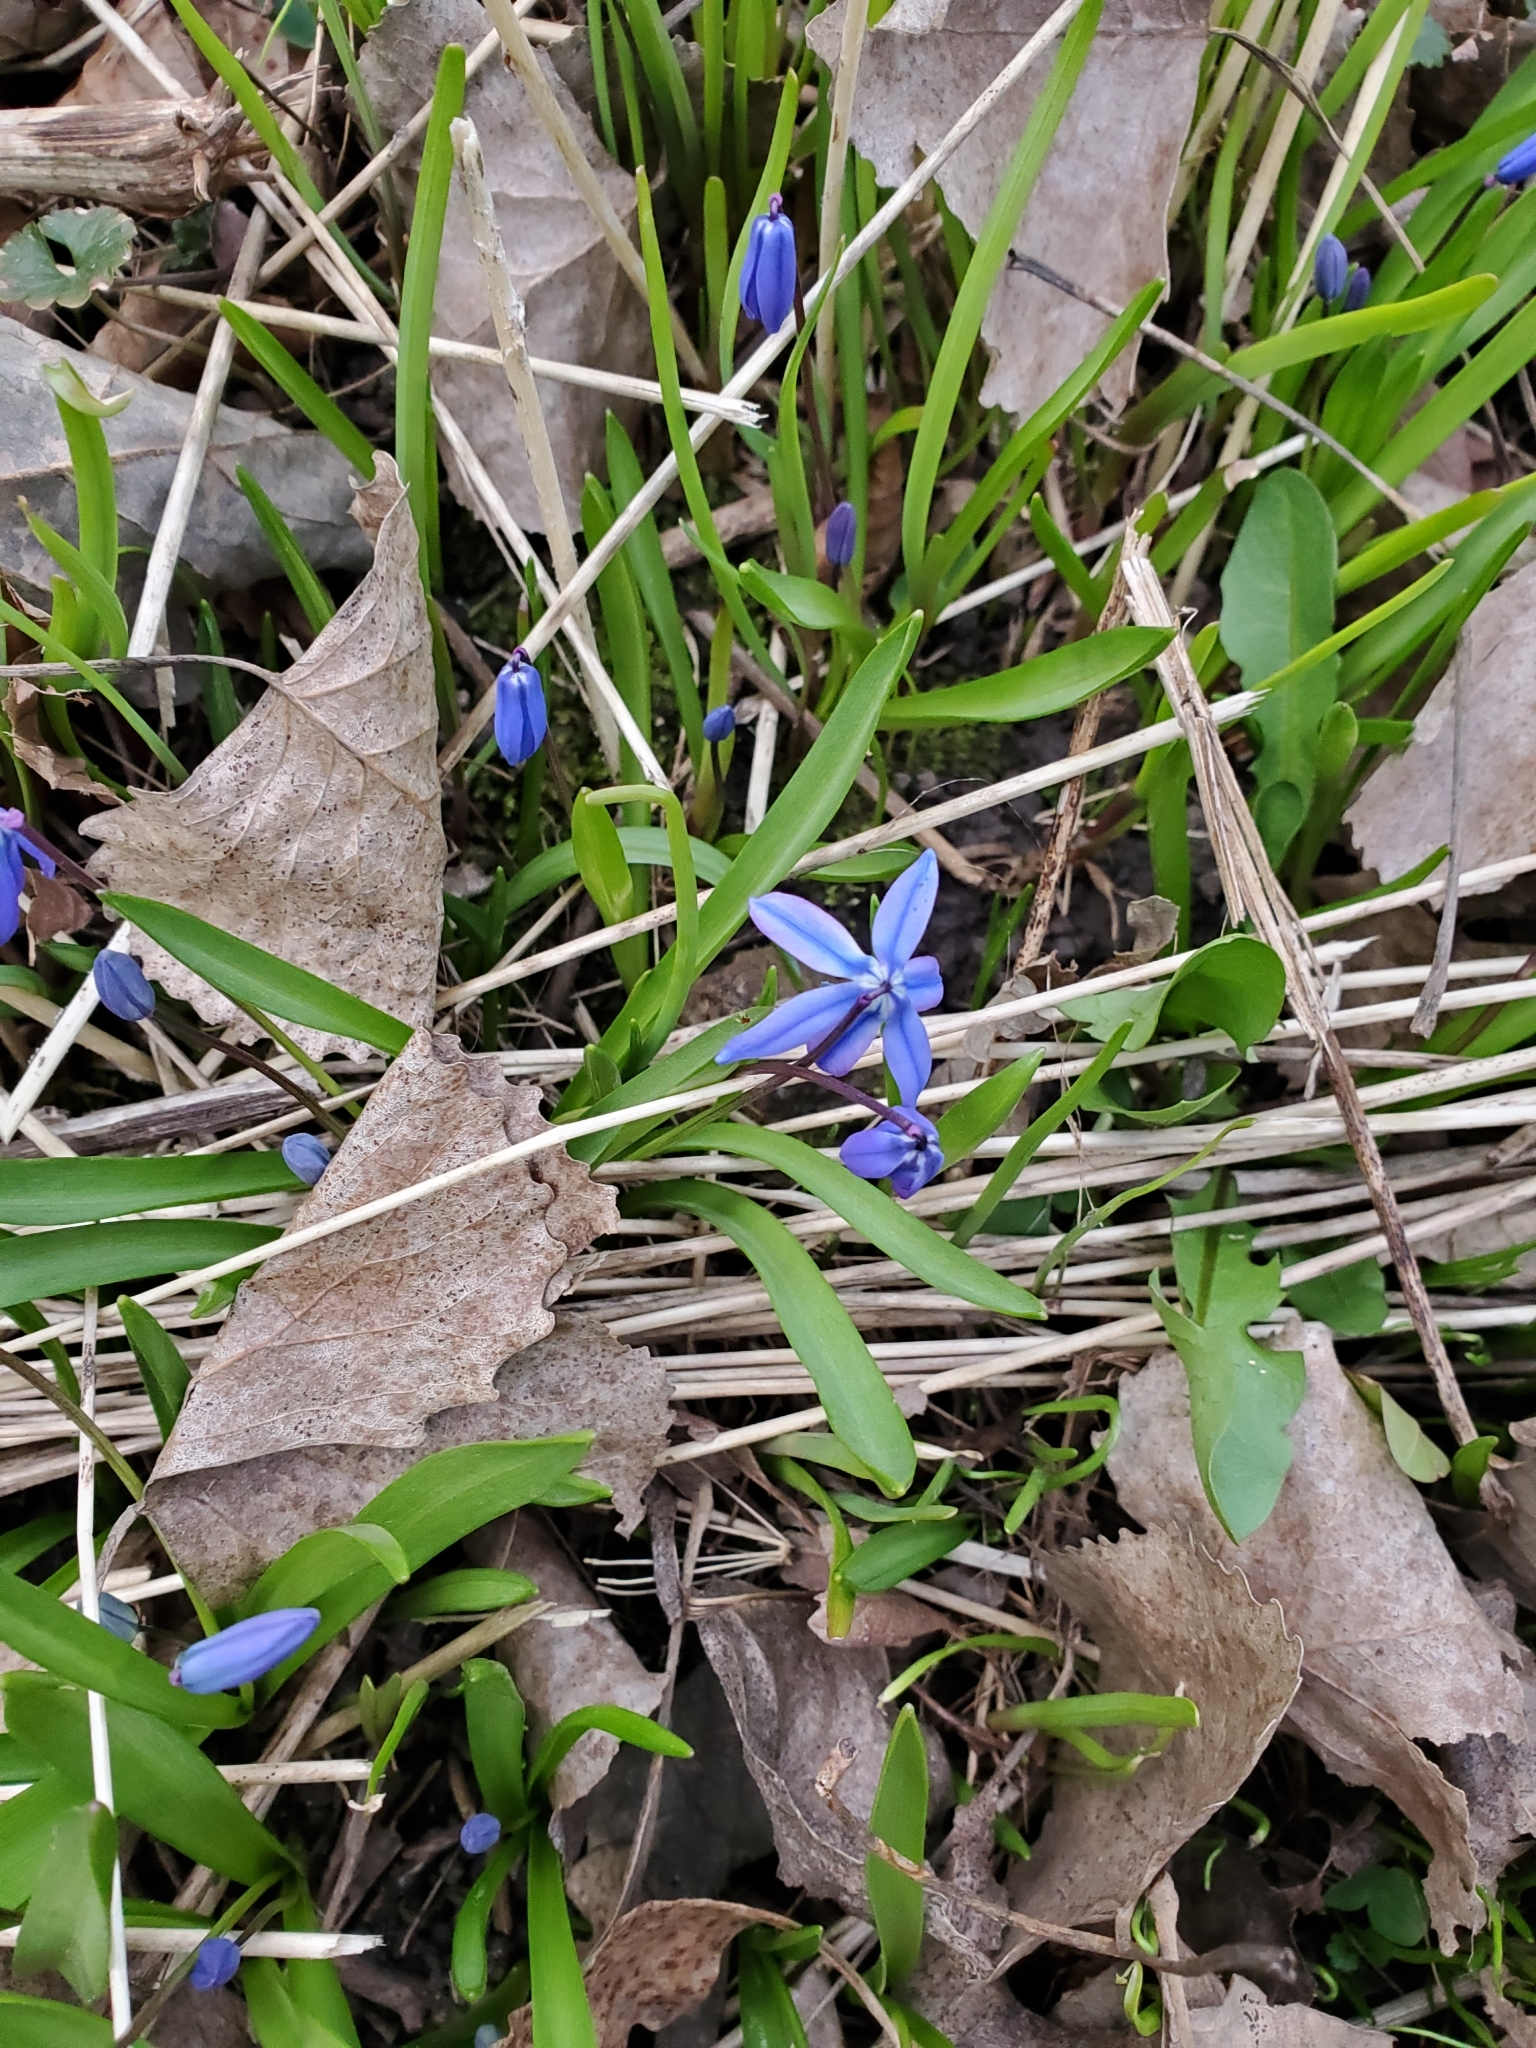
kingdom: Plantae
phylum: Tracheophyta
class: Liliopsida
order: Asparagales
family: Asparagaceae
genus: Scilla
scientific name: Scilla siberica
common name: Siberian squill
